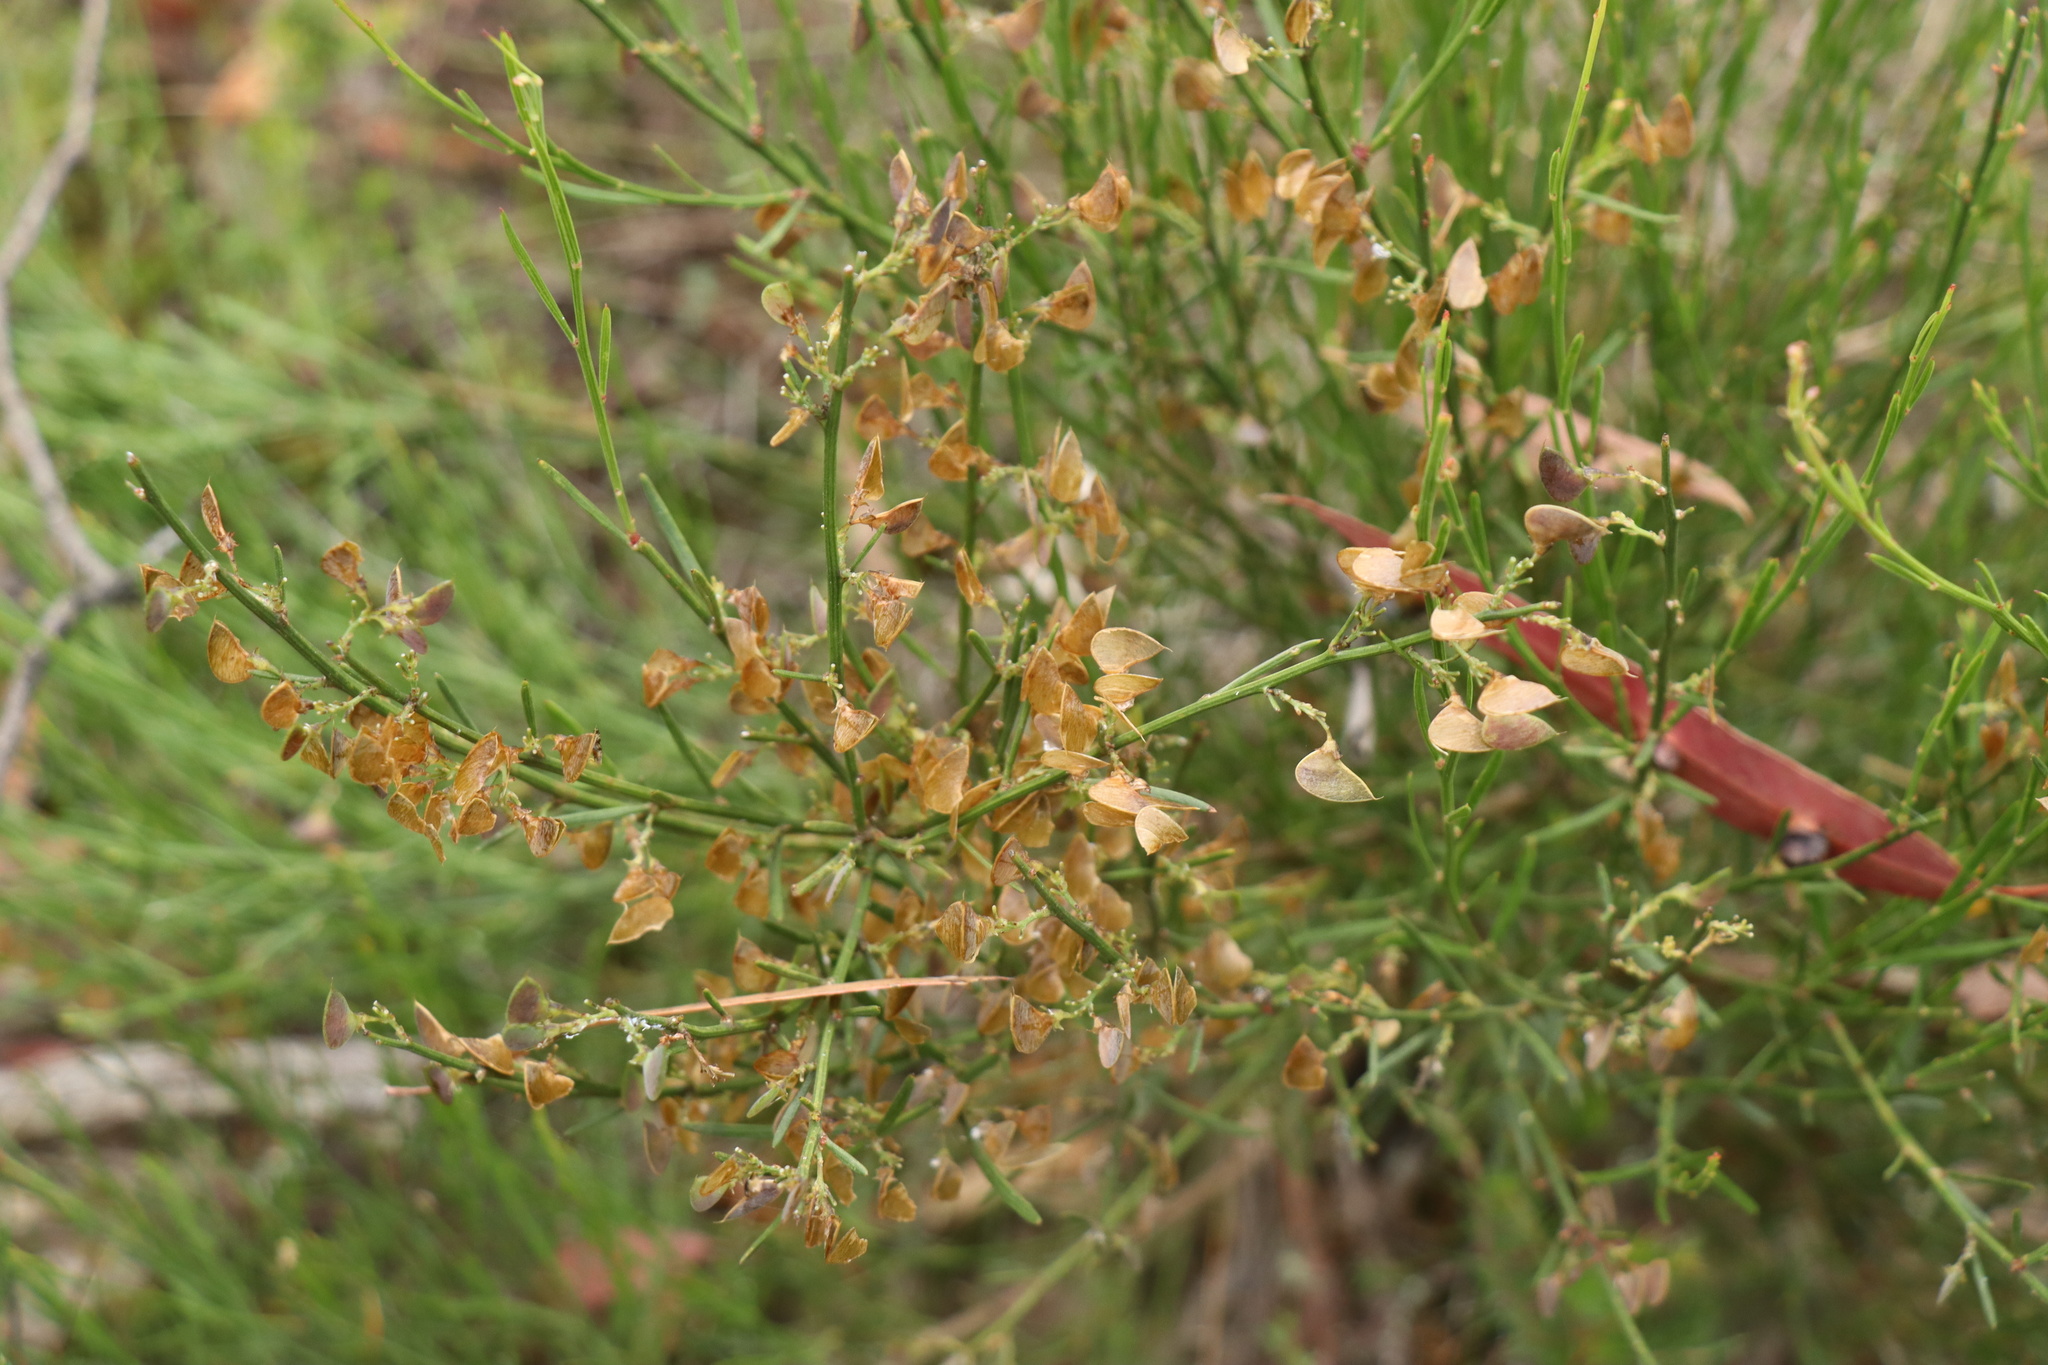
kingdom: Plantae
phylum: Tracheophyta
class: Magnoliopsida
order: Fabales
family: Fabaceae
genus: Daviesia
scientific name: Daviesia leptophylla
